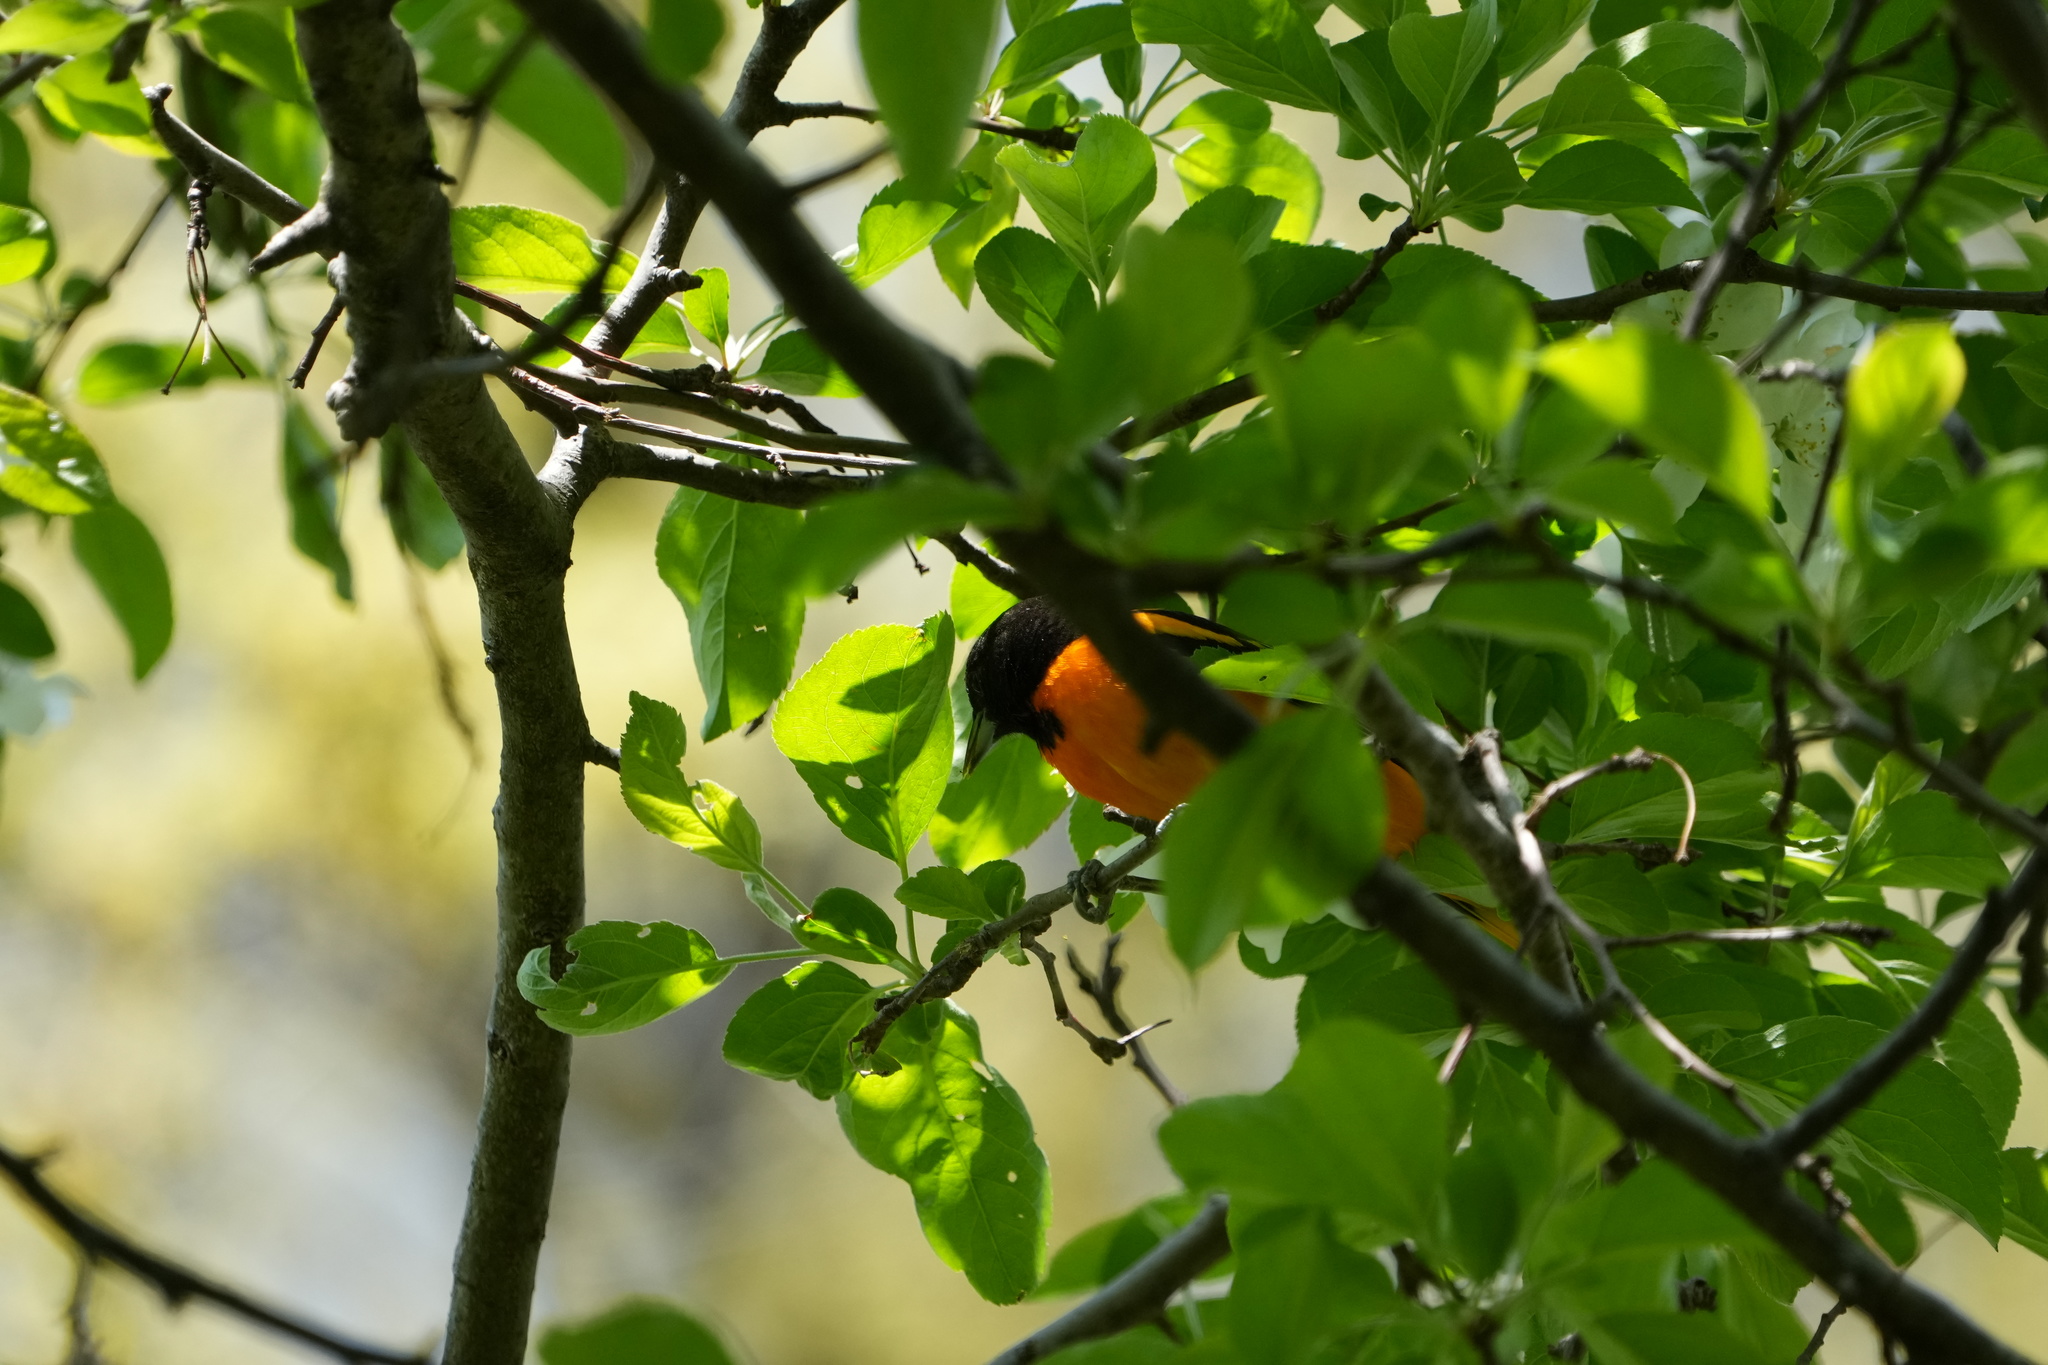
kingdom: Animalia
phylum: Chordata
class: Aves
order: Passeriformes
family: Icteridae
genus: Icterus
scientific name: Icterus galbula
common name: Baltimore oriole
